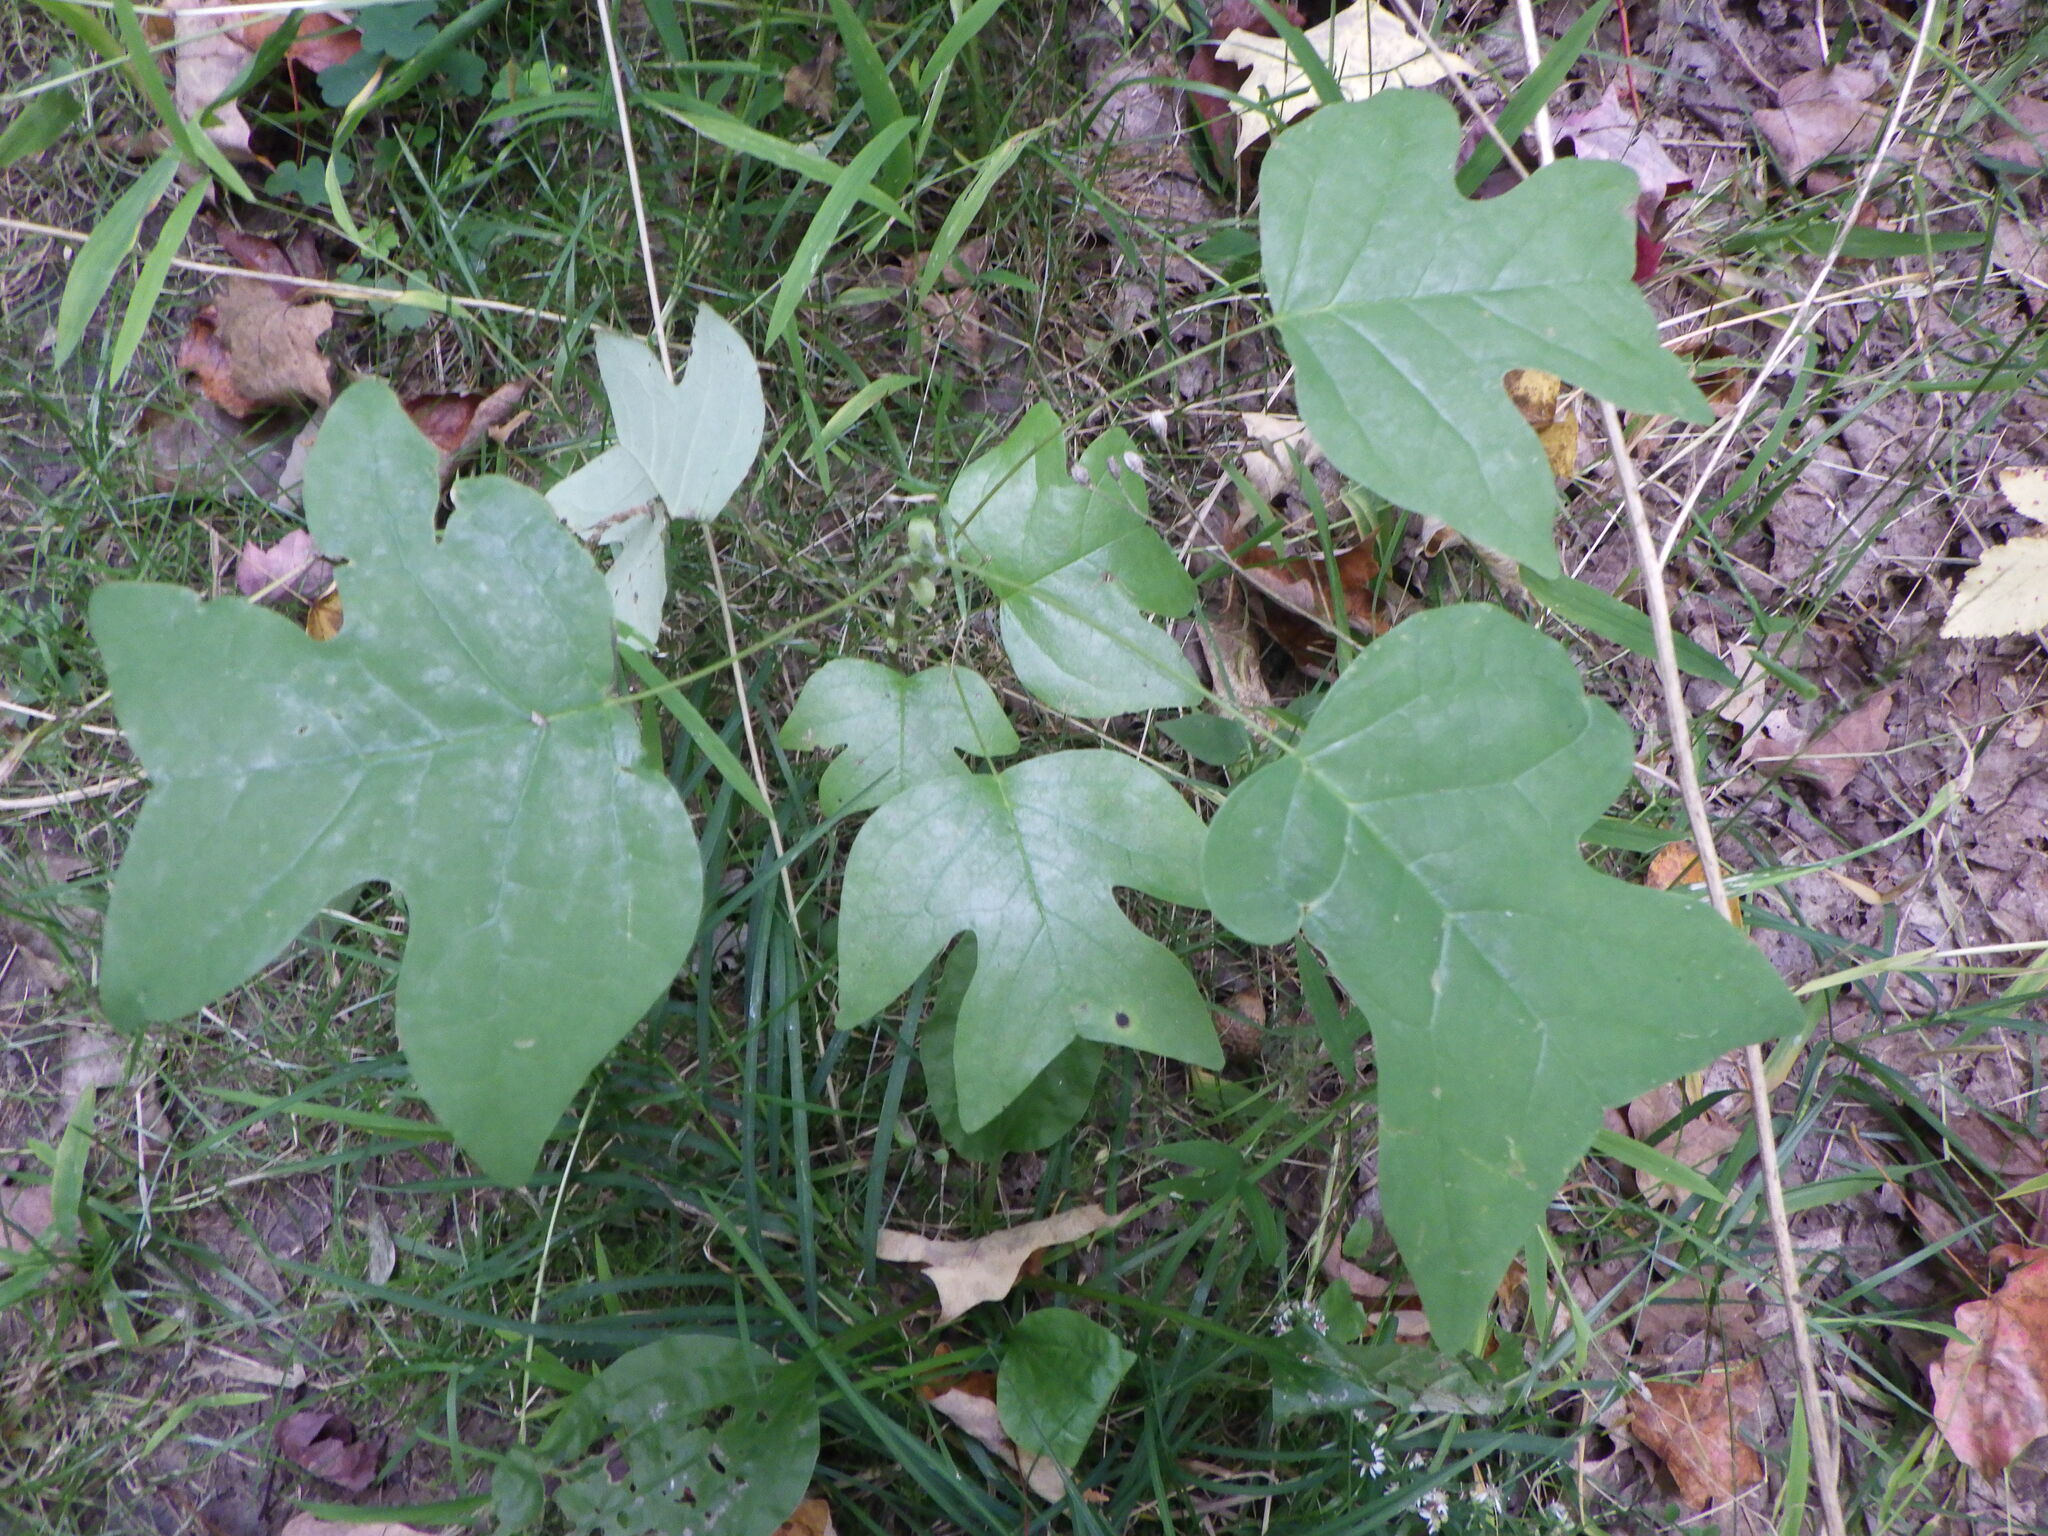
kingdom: Plantae
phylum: Tracheophyta
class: Magnoliopsida
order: Magnoliales
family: Magnoliaceae
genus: Liriodendron
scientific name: Liriodendron tulipifera
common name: Tulip tree
